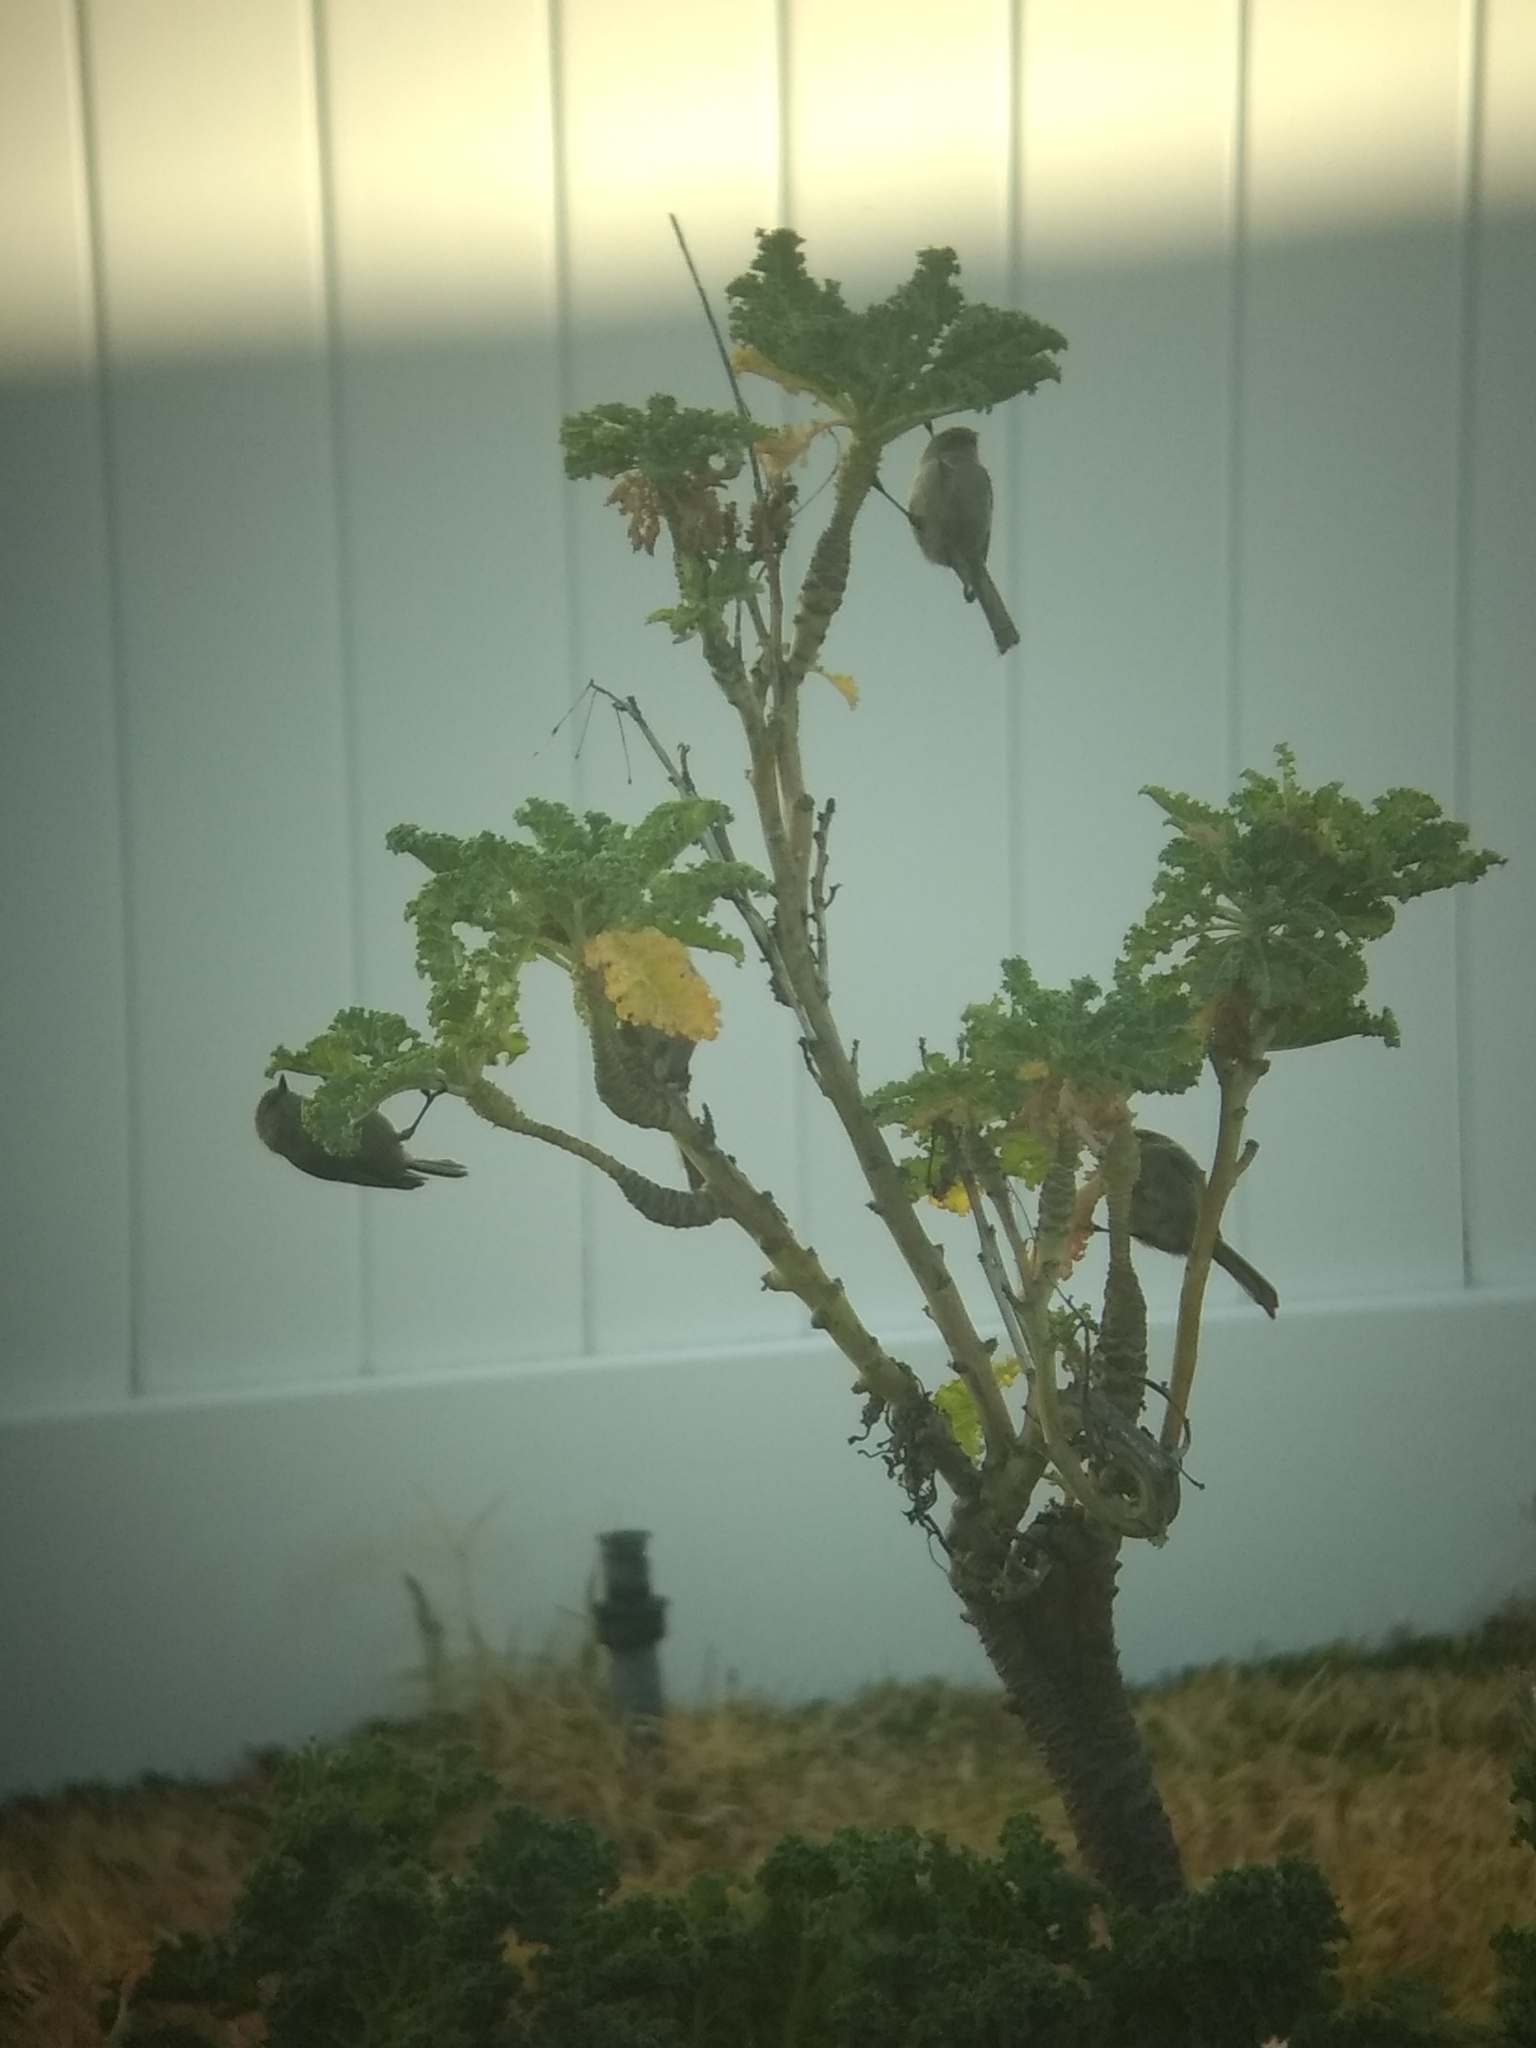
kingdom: Animalia
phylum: Chordata
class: Aves
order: Passeriformes
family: Aegithalidae
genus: Psaltriparus
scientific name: Psaltriparus minimus
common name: American bushtit
